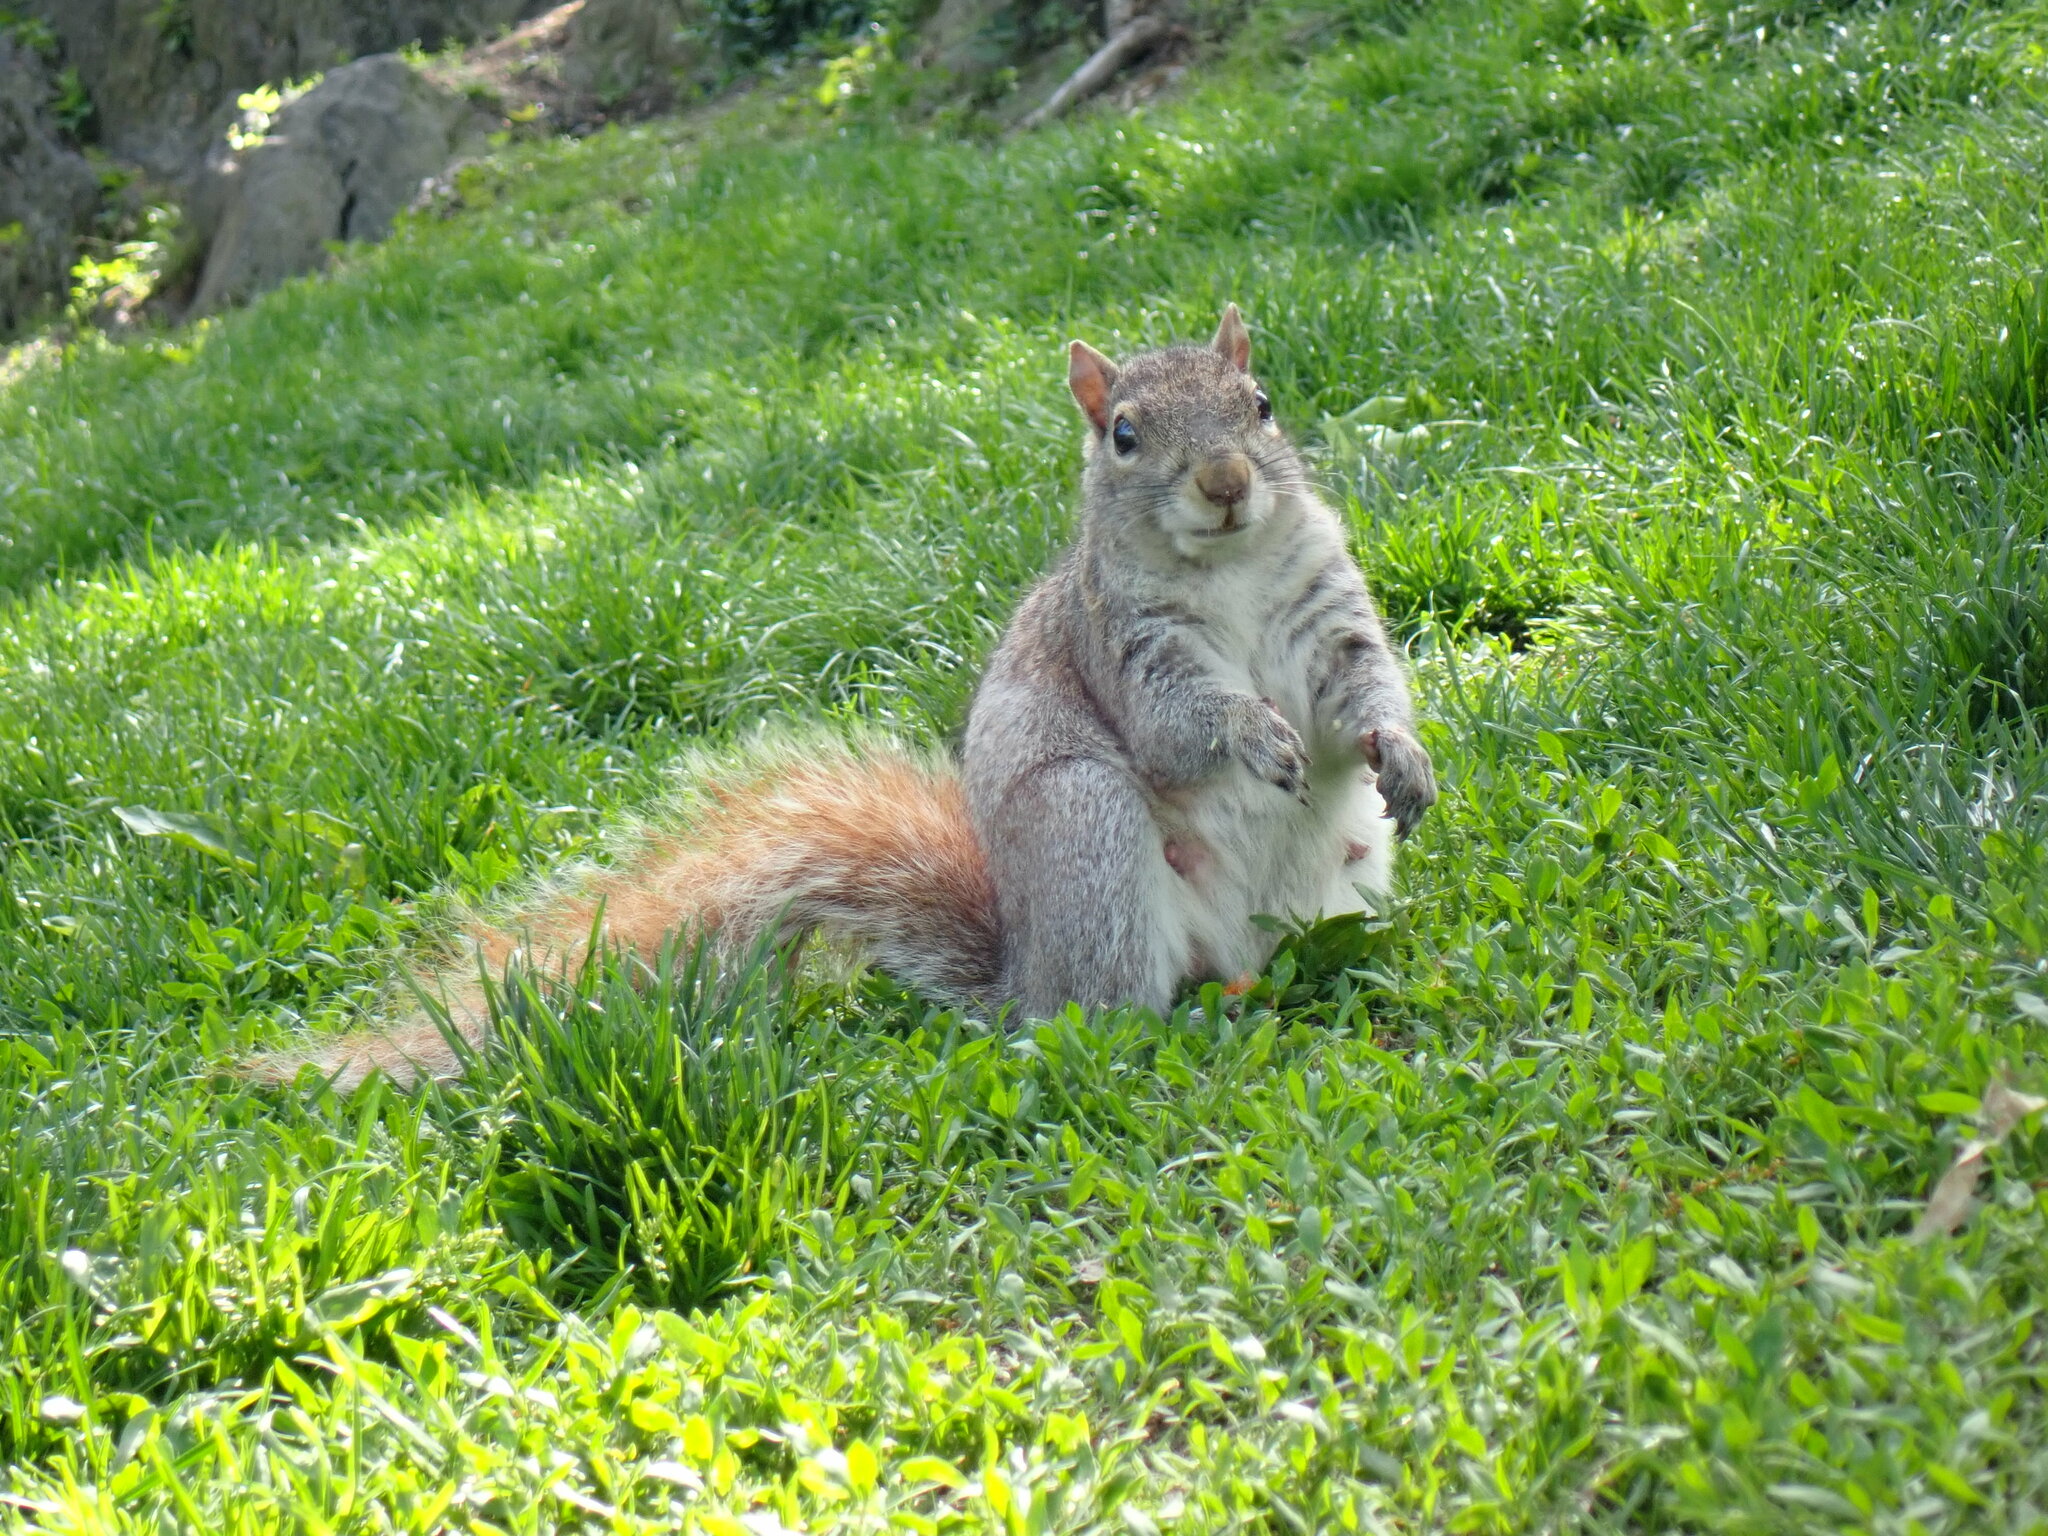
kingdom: Animalia
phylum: Chordata
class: Mammalia
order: Rodentia
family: Sciuridae
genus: Sciurus
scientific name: Sciurus carolinensis
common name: Eastern gray squirrel
